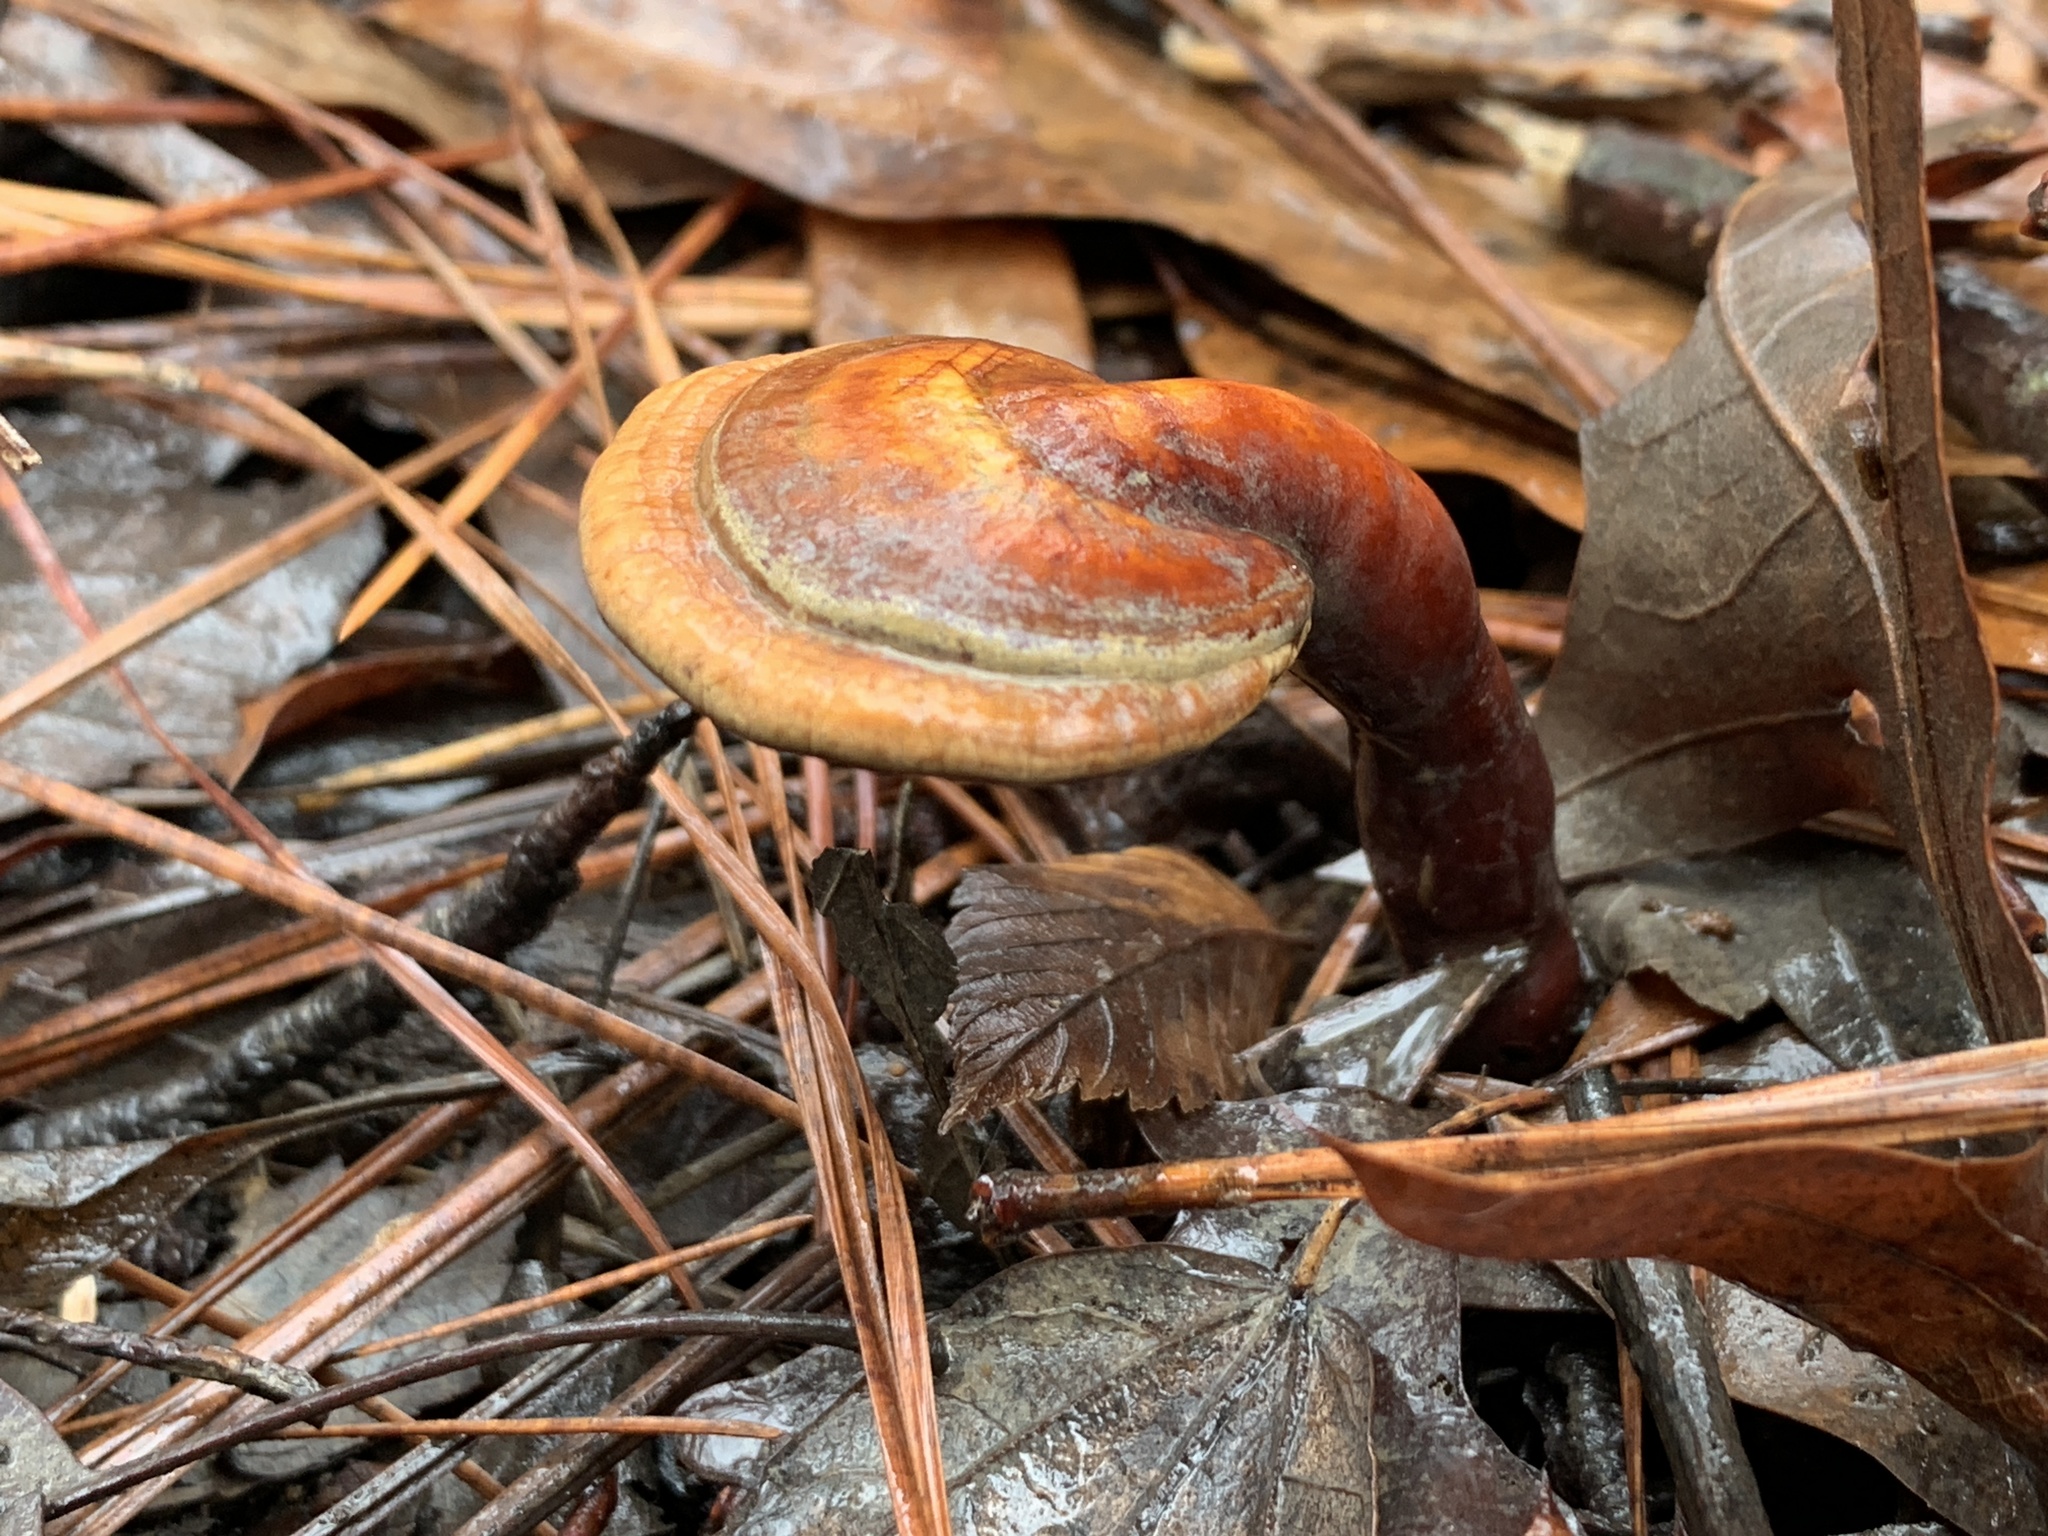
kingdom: Fungi
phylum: Basidiomycota
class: Agaricomycetes
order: Polyporales
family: Polyporaceae
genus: Ganoderma
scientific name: Ganoderma curtisii
